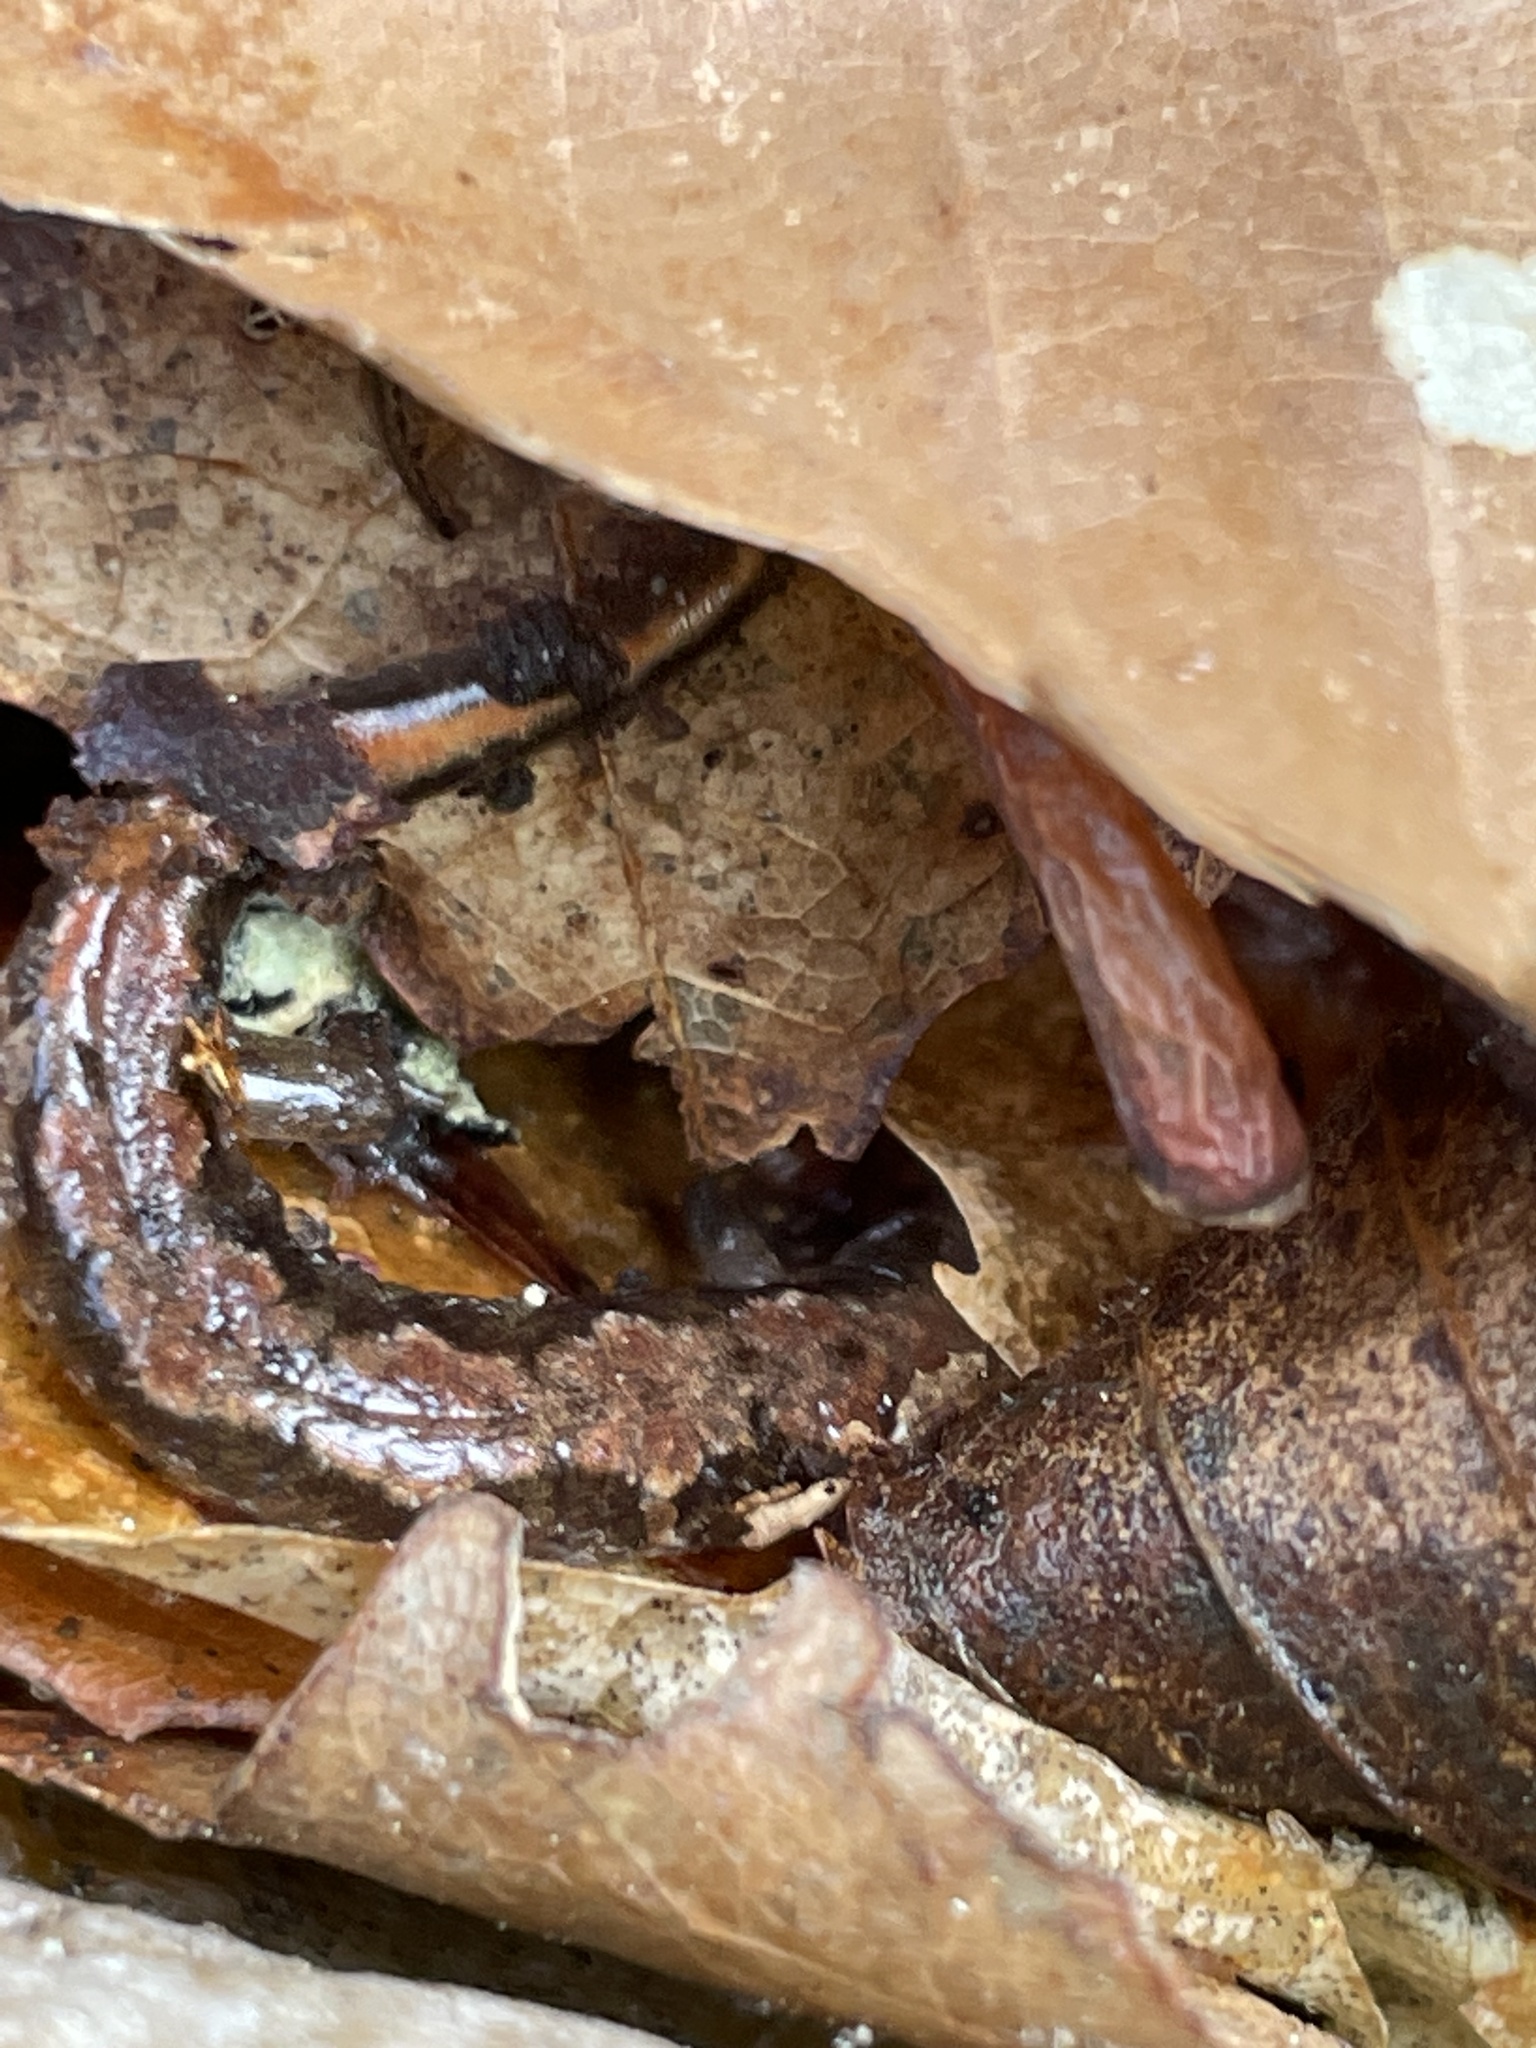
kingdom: Animalia
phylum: Chordata
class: Amphibia
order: Caudata
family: Plethodontidae
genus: Desmognathus
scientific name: Desmognathus ocoee
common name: Ocoee salamander
